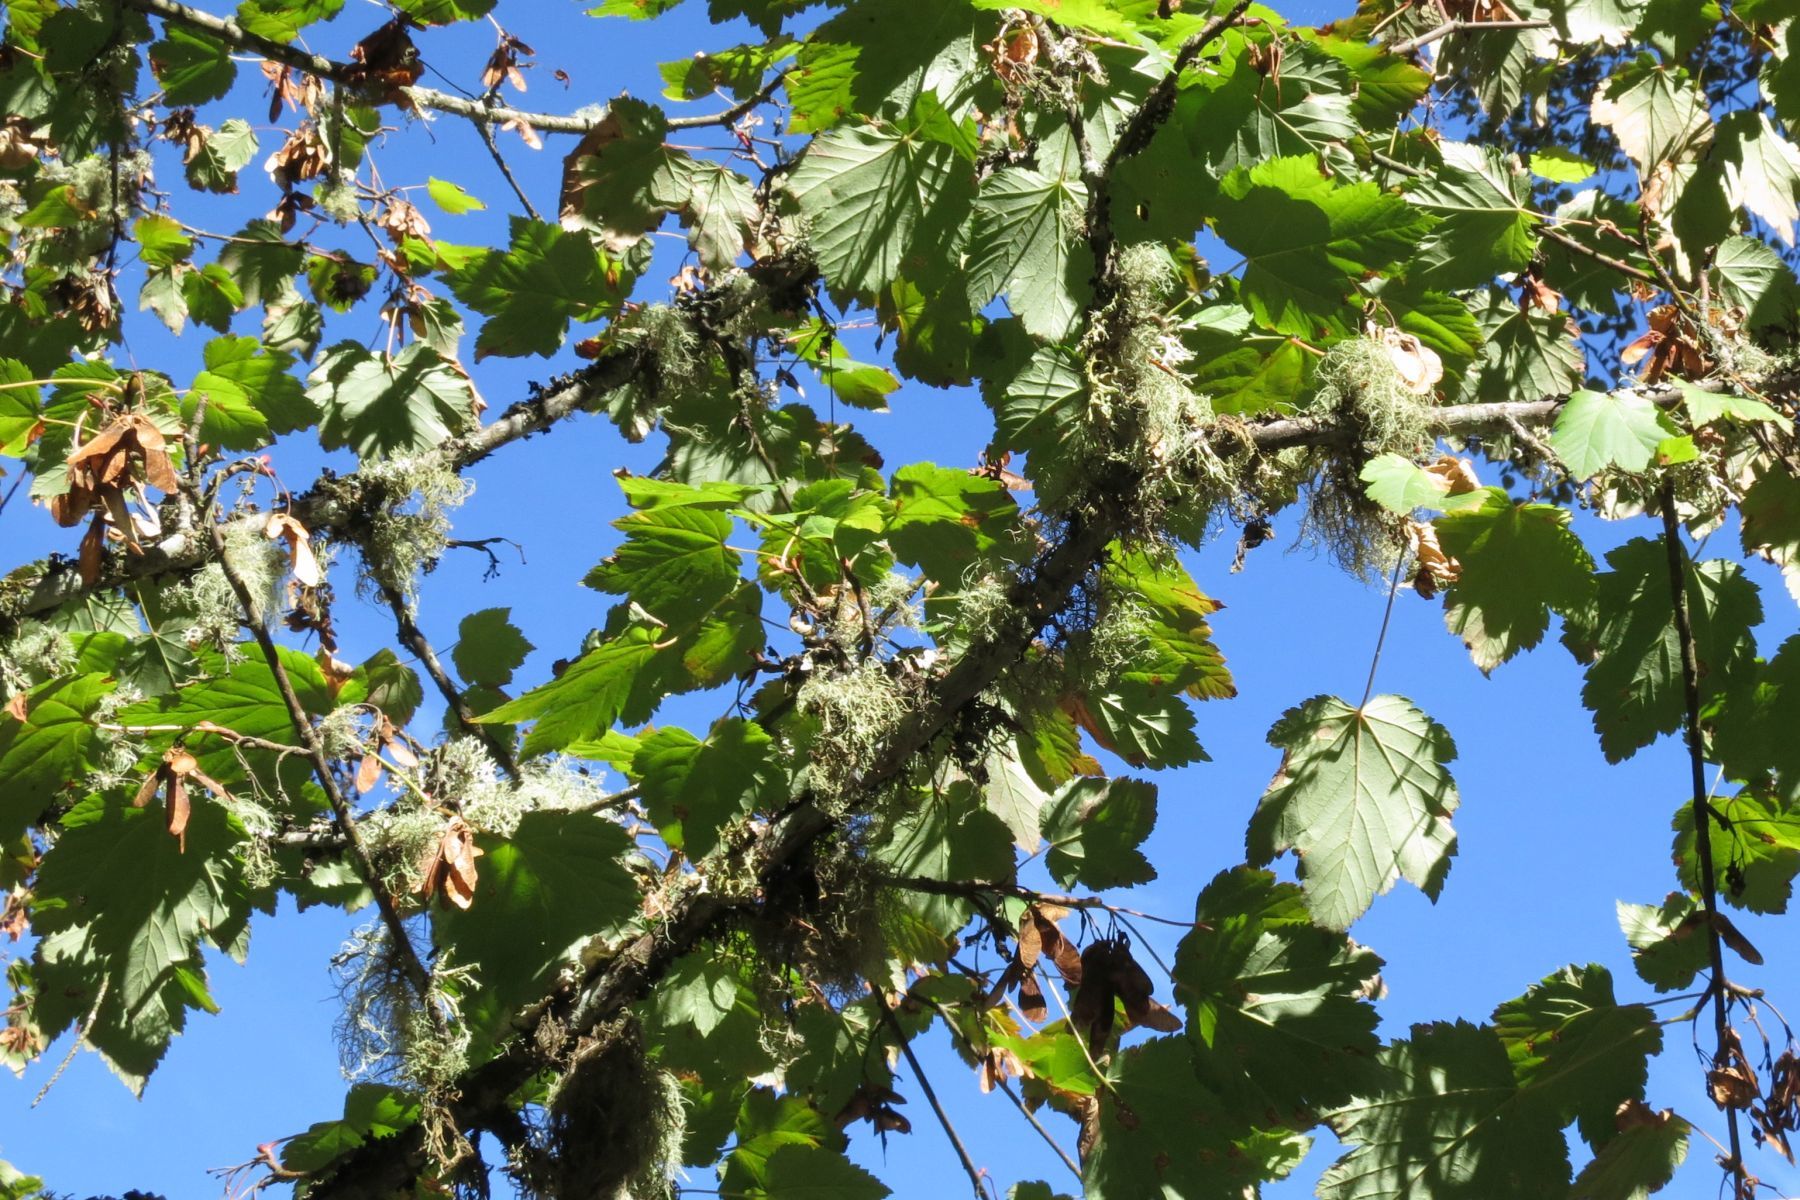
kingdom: Plantae
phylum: Tracheophyta
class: Magnoliopsida
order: Sapindales
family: Sapindaceae
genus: Acer
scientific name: Acer glabrum
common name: Rocky mountain maple
